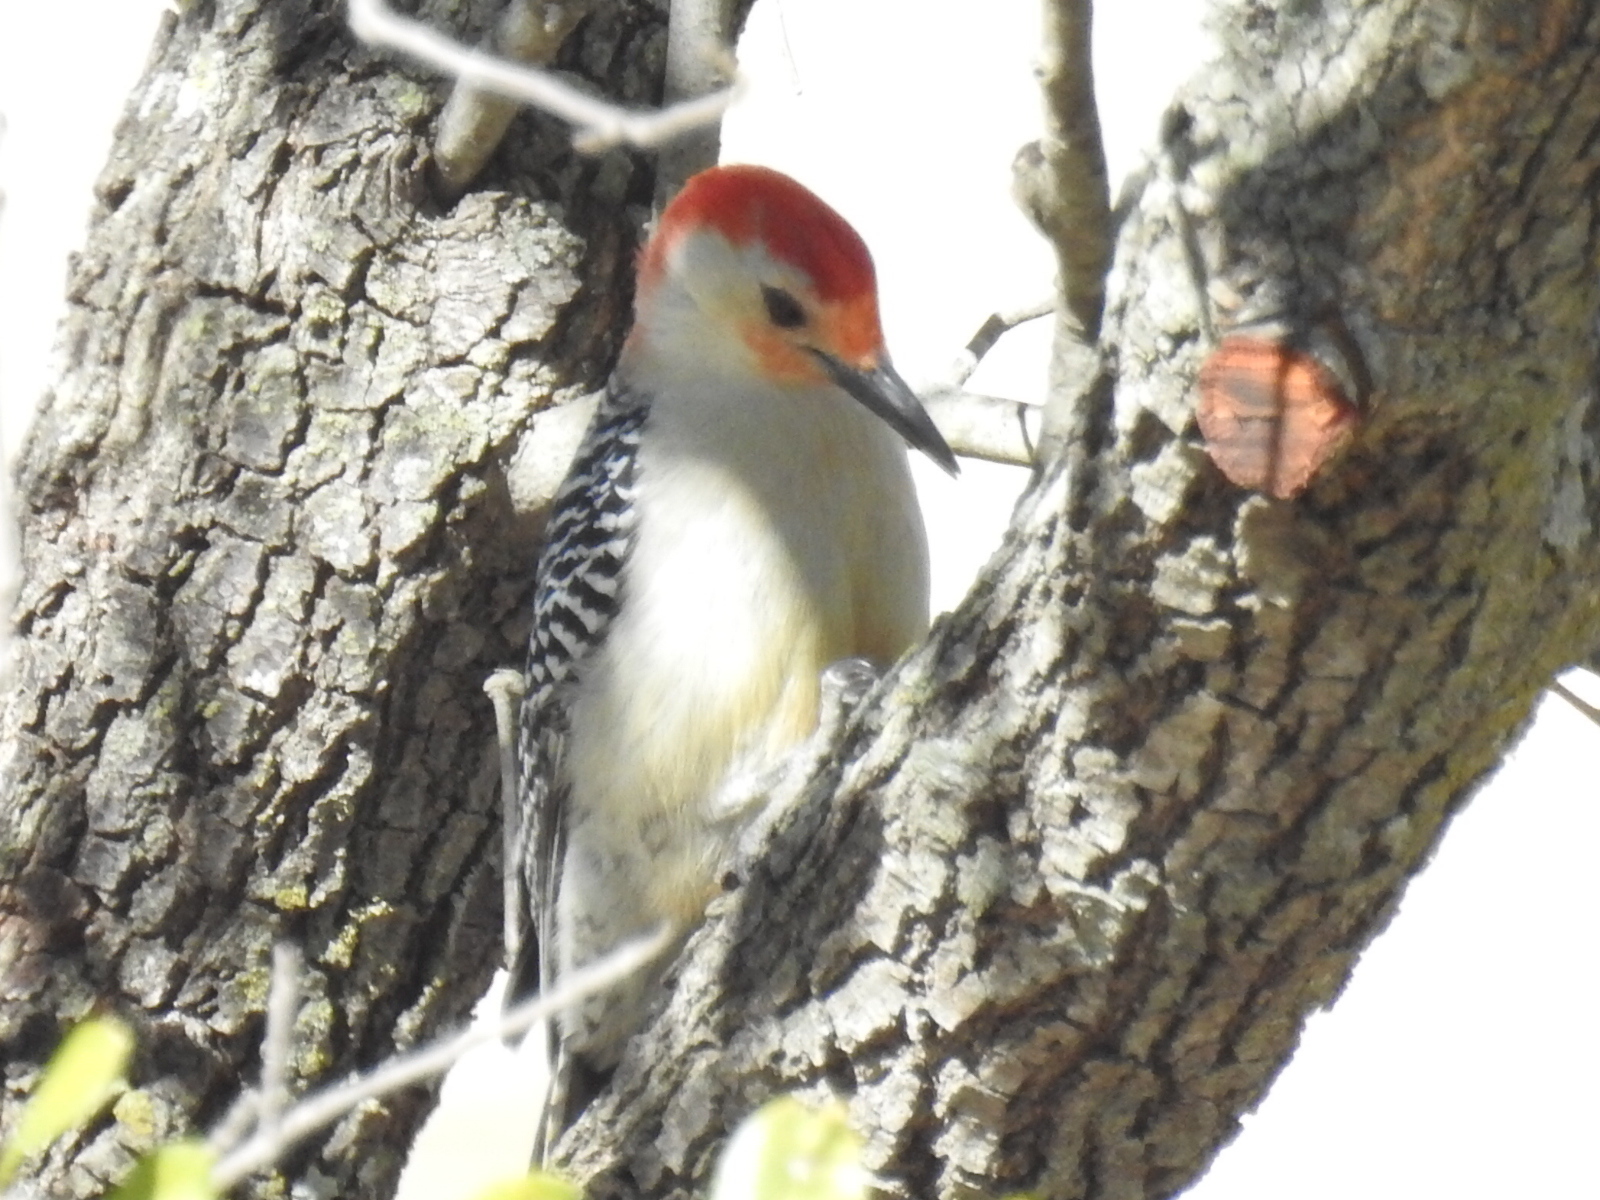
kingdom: Animalia
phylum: Chordata
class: Aves
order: Piciformes
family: Picidae
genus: Melanerpes
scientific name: Melanerpes carolinus
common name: Red-bellied woodpecker
